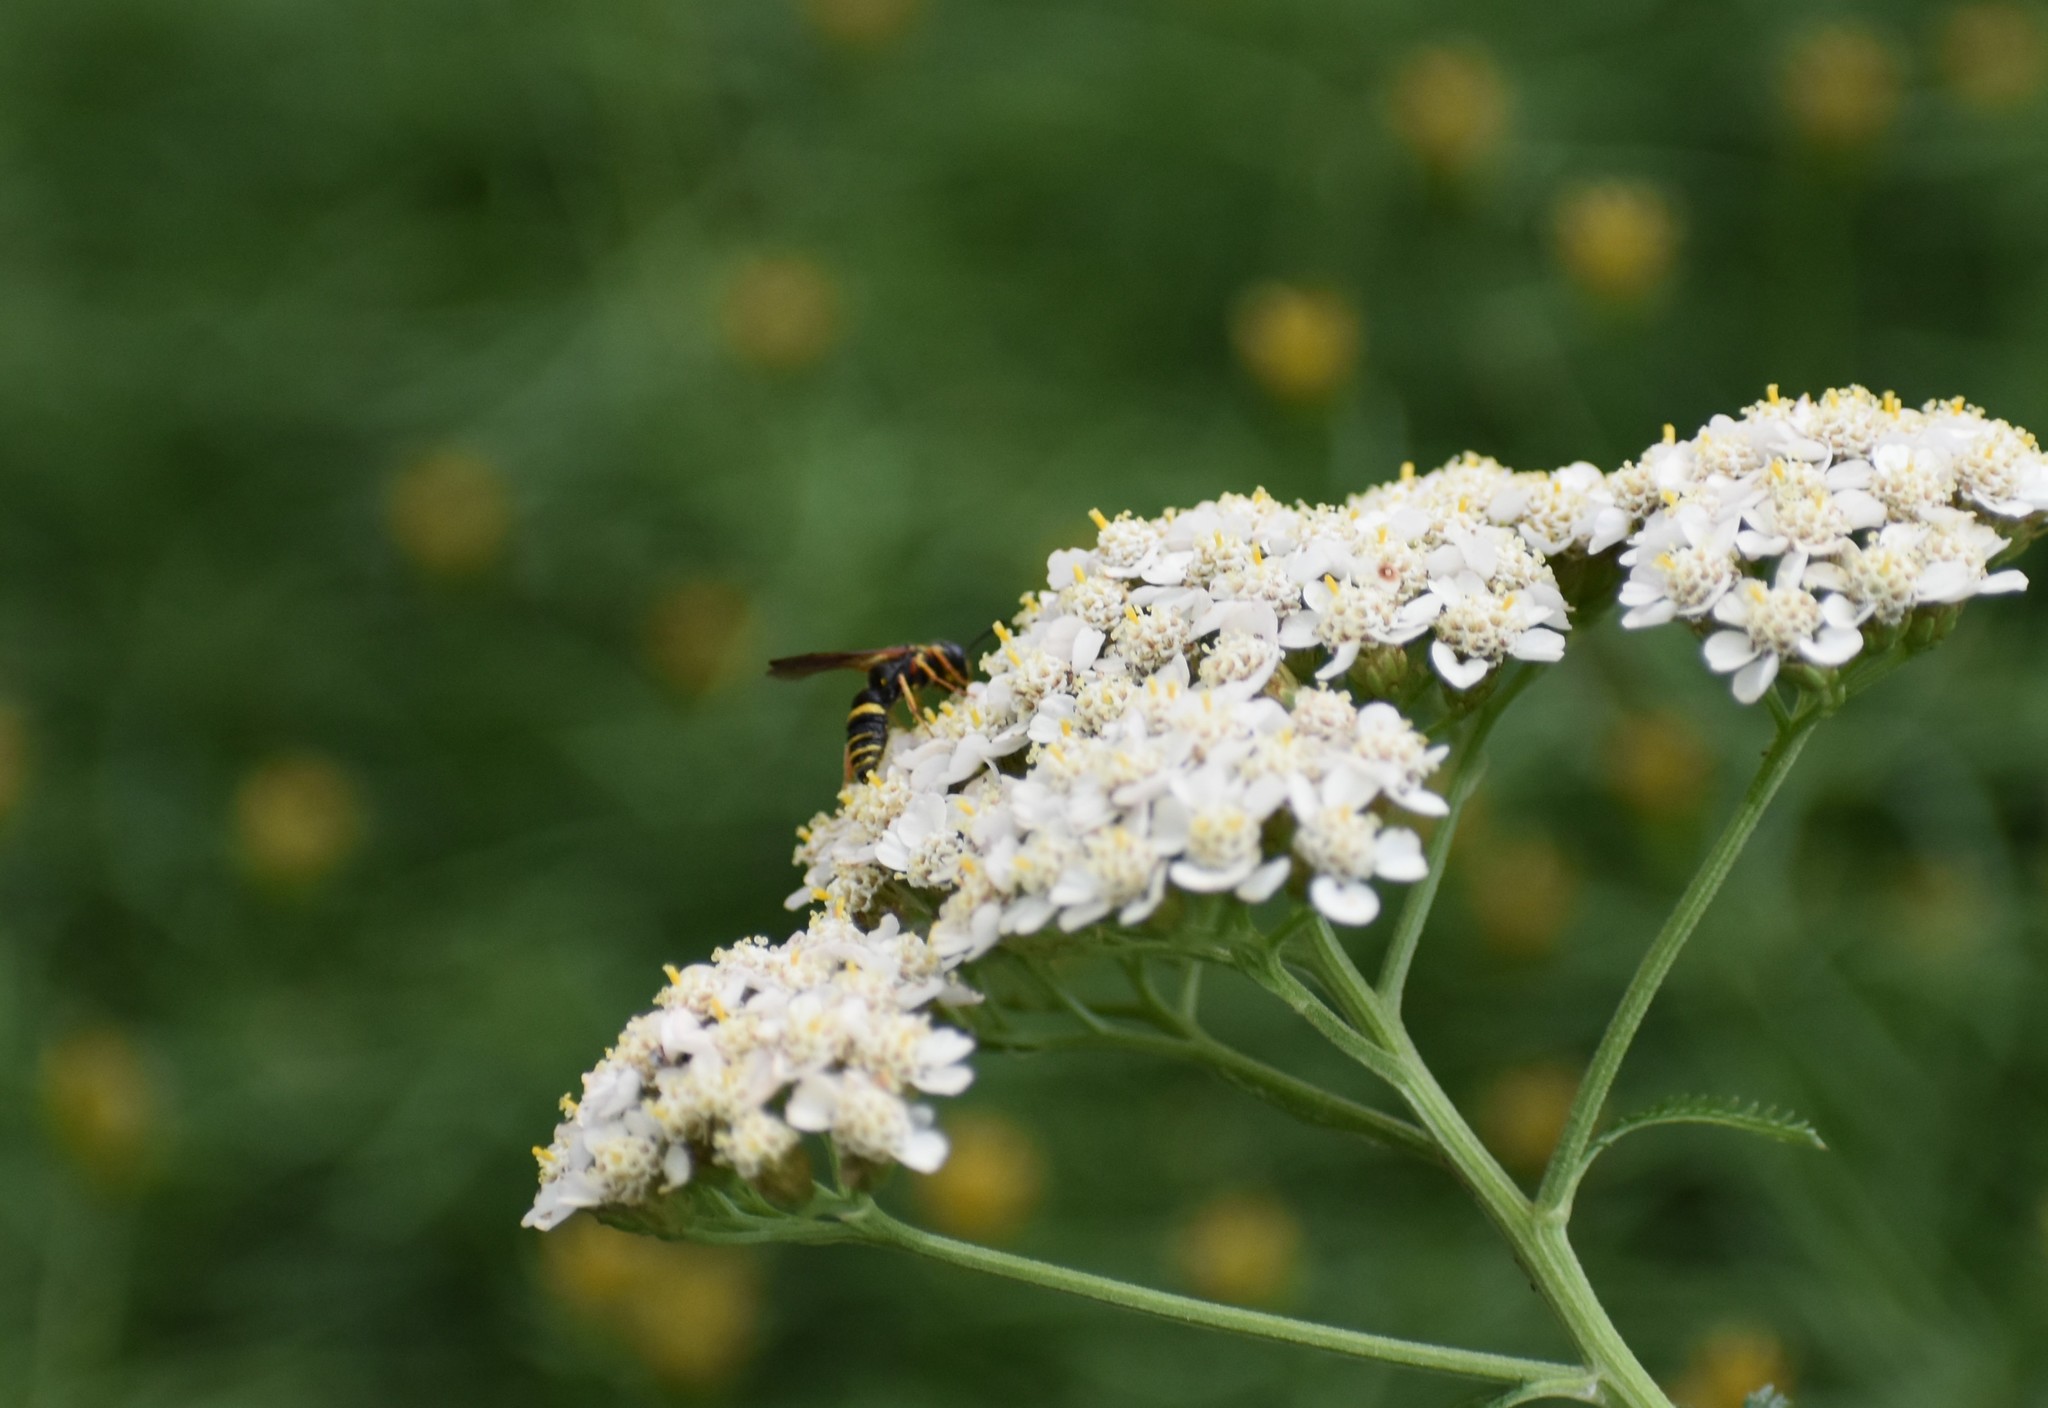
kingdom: Animalia
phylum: Arthropoda
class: Insecta
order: Hymenoptera
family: Crabronidae
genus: Philanthus
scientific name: Philanthus gibbosus
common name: Humped beewolf
